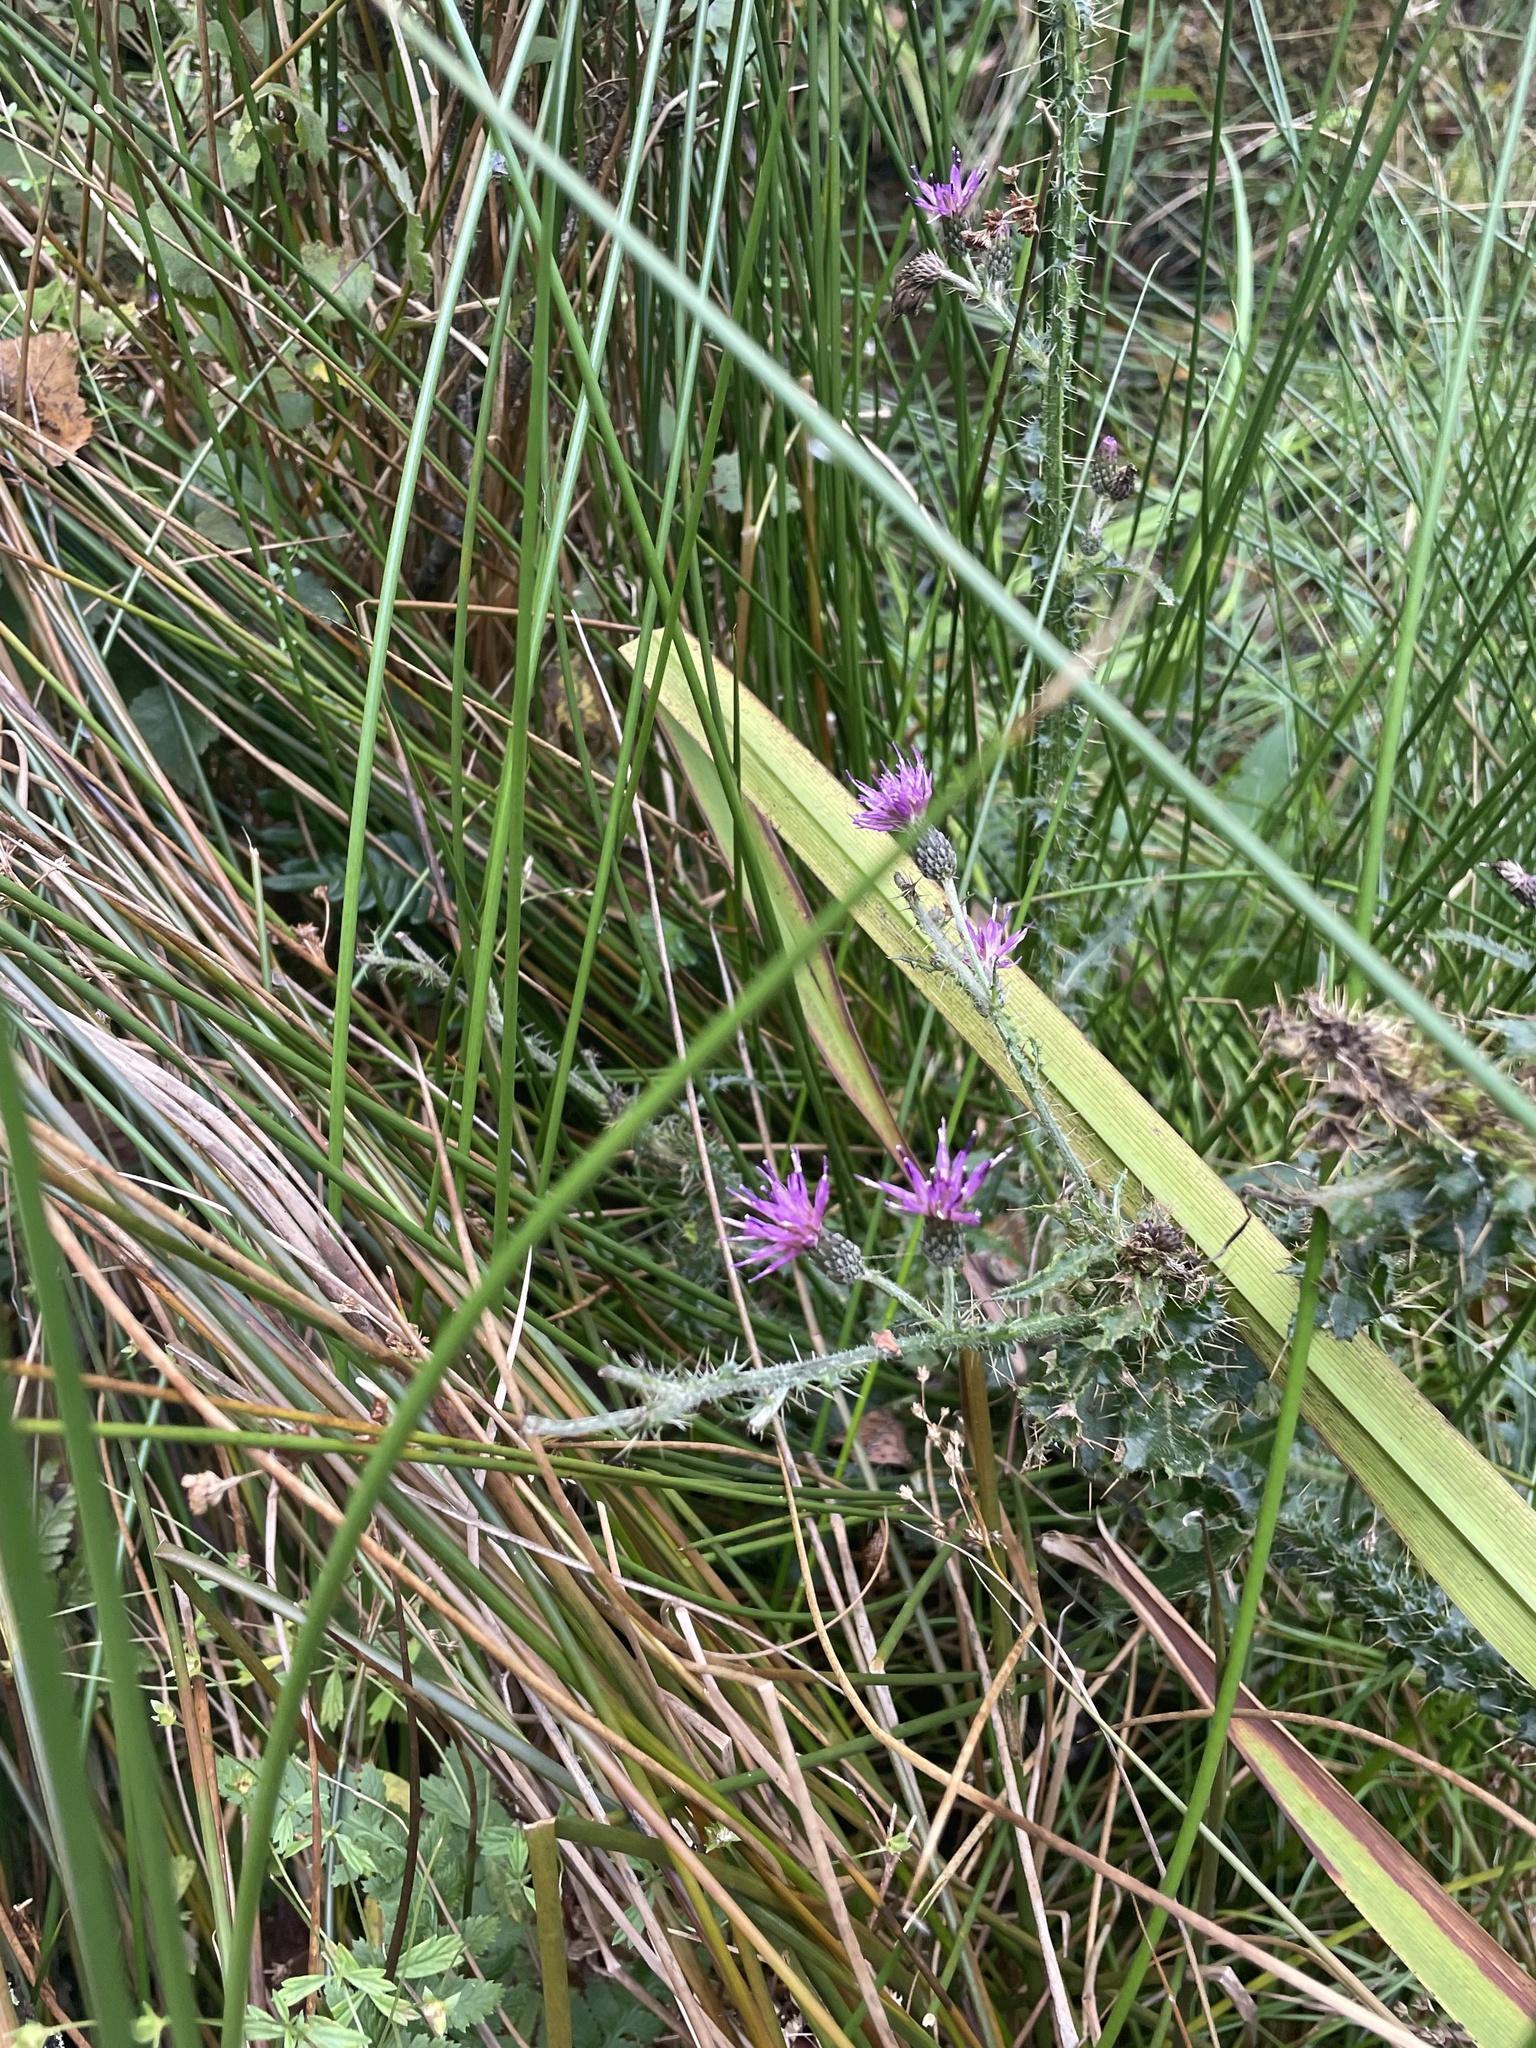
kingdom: Plantae
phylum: Tracheophyta
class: Magnoliopsida
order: Asterales
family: Asteraceae
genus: Cirsium
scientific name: Cirsium palustre
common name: Marsh thistle
